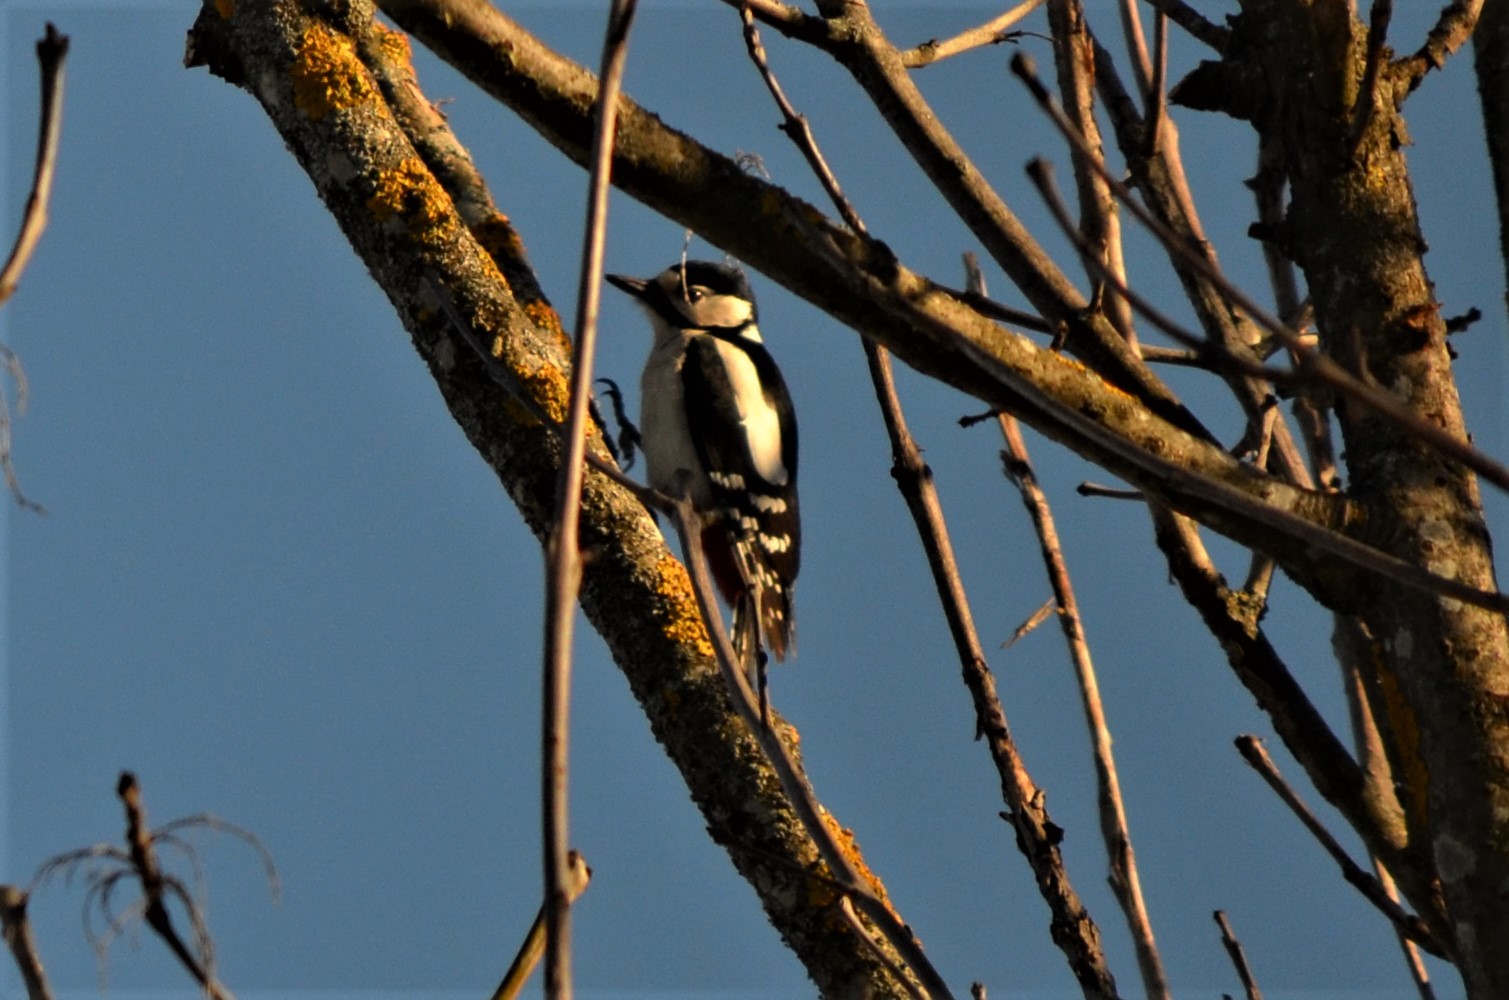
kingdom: Animalia
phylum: Chordata
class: Aves
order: Piciformes
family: Picidae
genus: Dendrocopos
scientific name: Dendrocopos major
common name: Great spotted woodpecker
